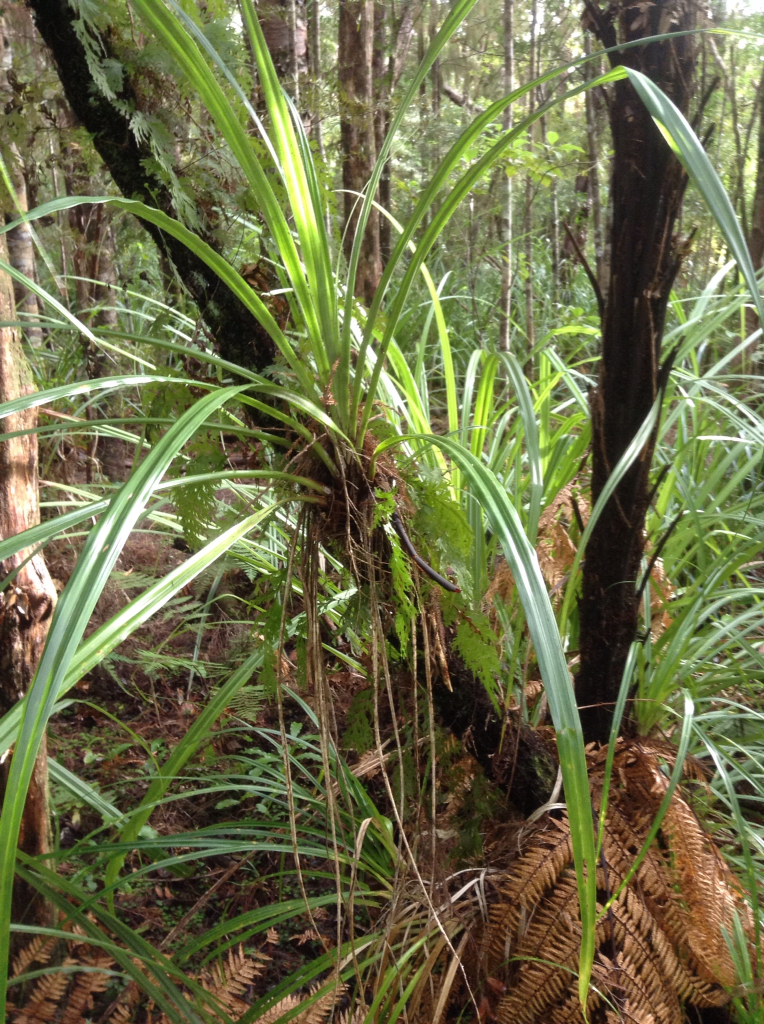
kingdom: Plantae
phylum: Tracheophyta
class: Liliopsida
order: Asparagales
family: Asteliaceae
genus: Astelia
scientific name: Astelia solandri
